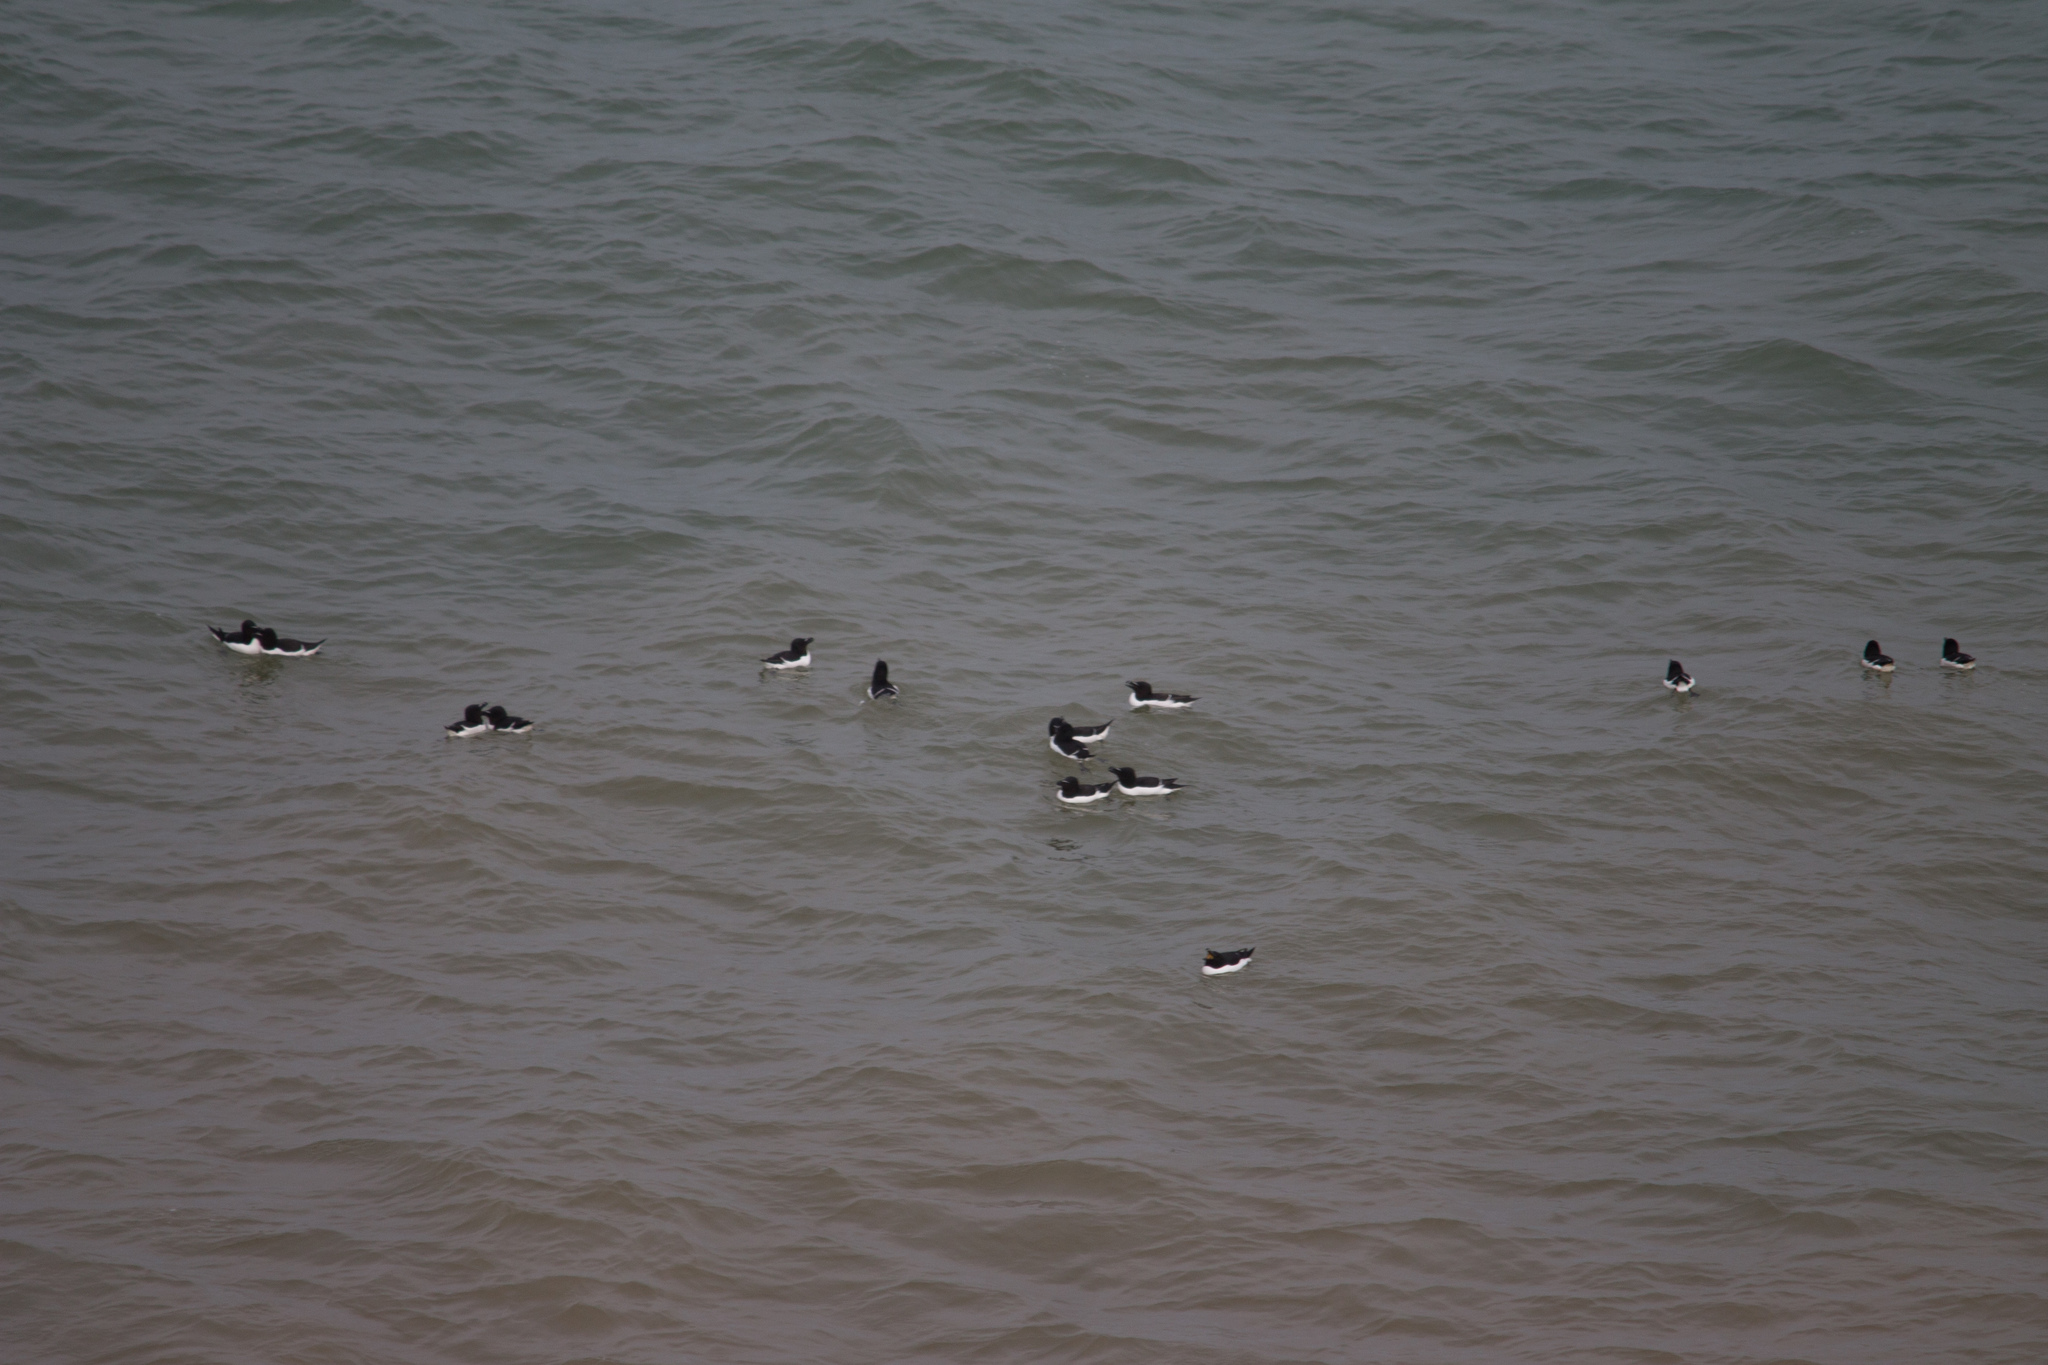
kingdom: Animalia
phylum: Chordata
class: Aves
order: Charadriiformes
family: Alcidae
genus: Alca
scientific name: Alca torda
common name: Razorbill
